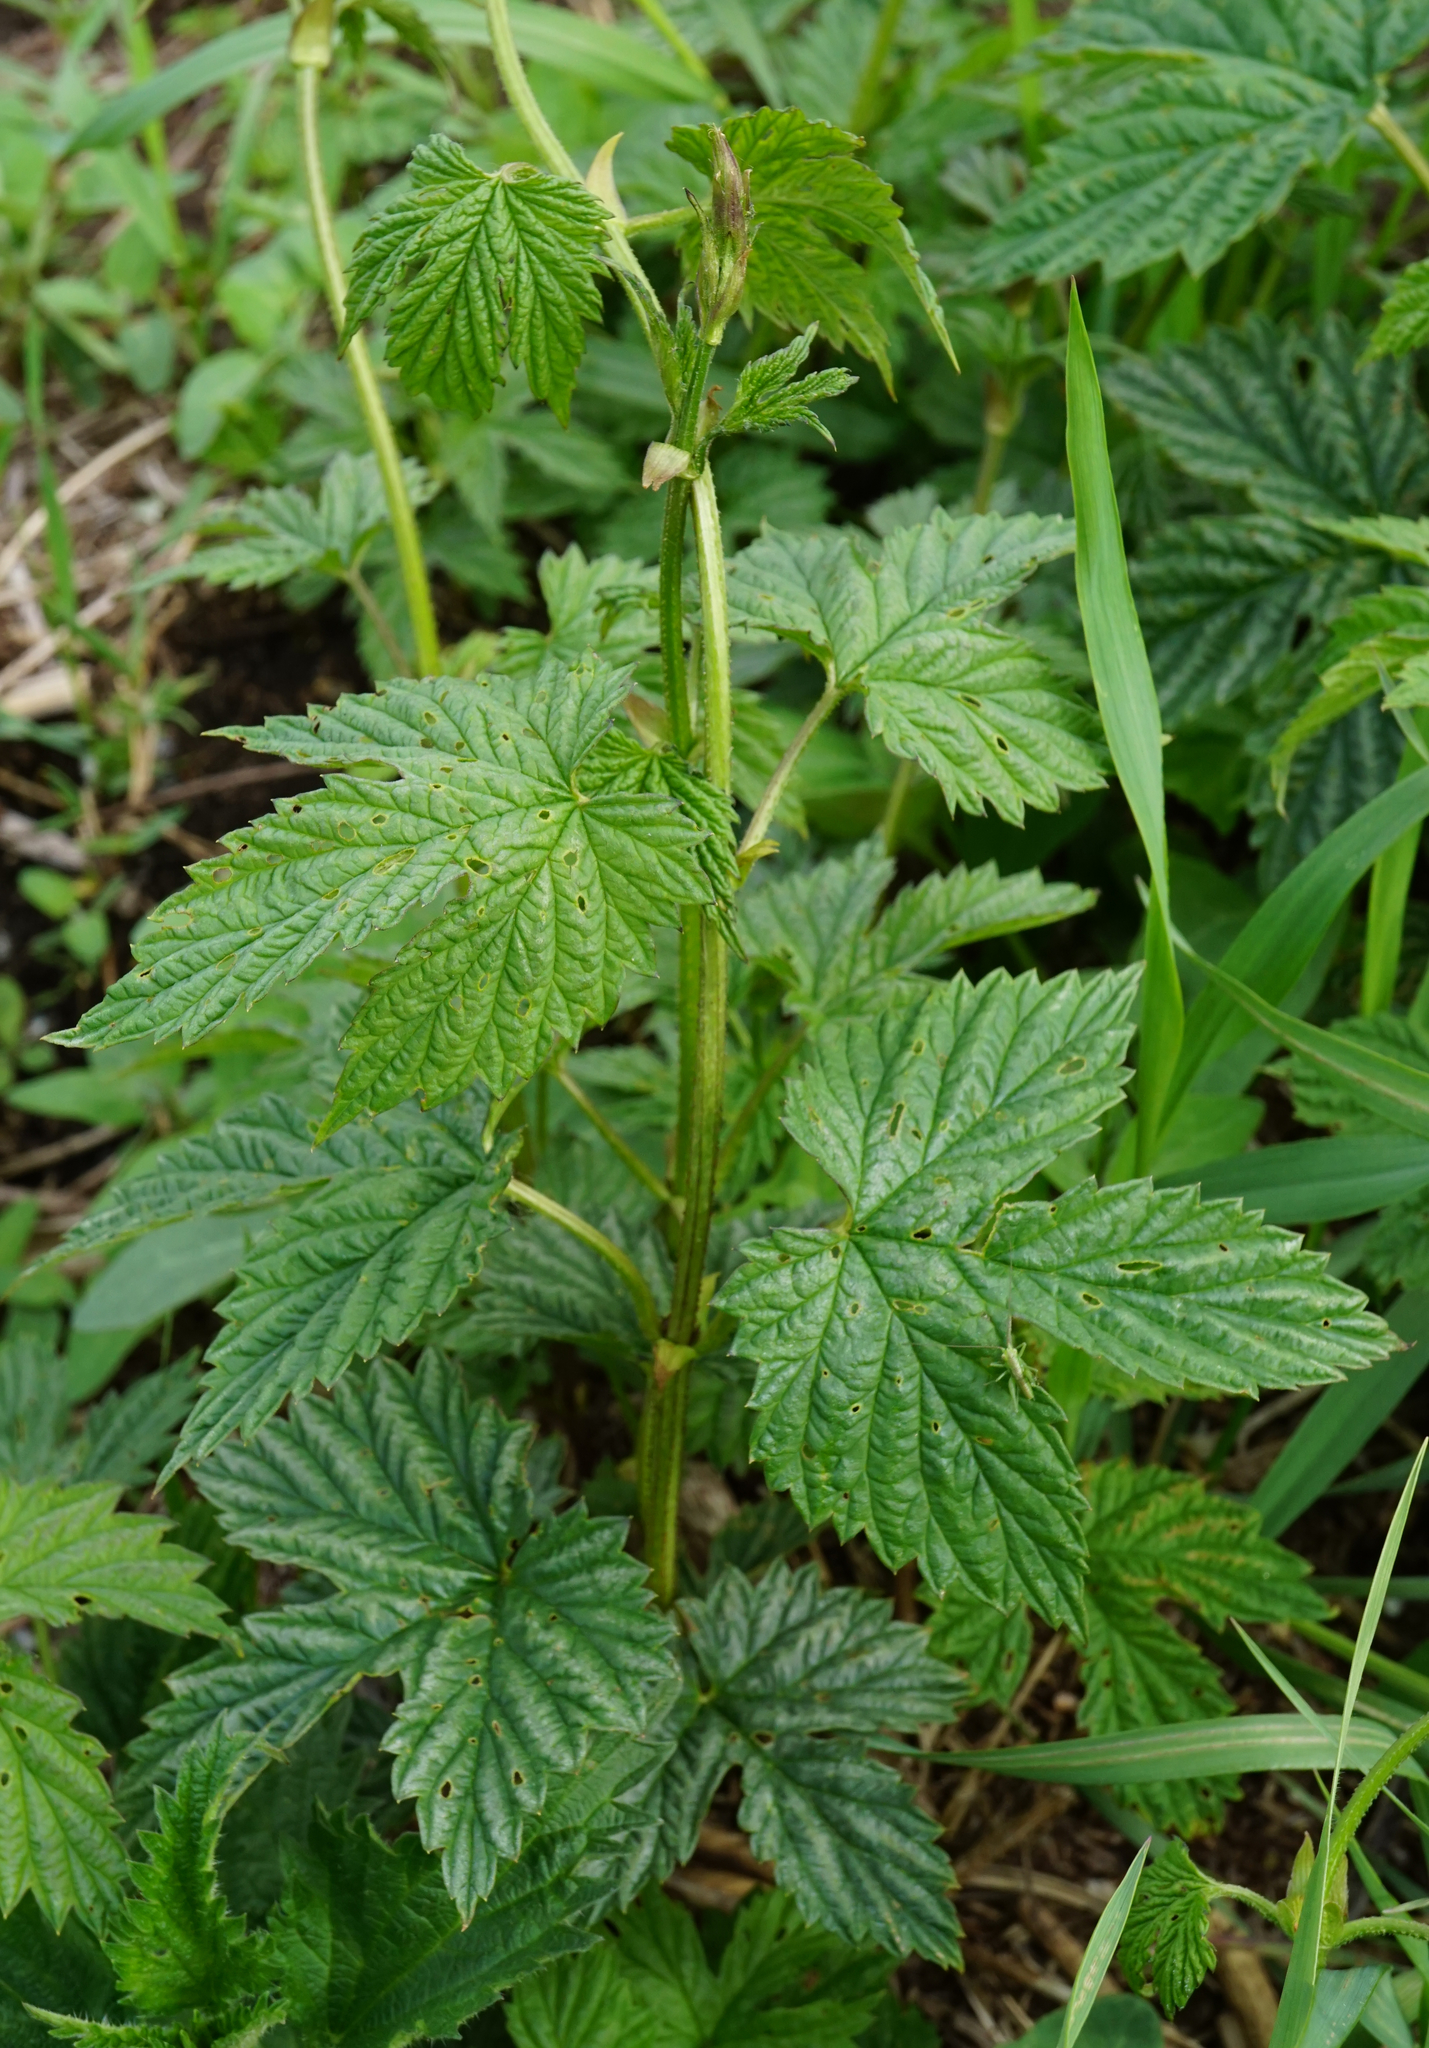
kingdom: Plantae
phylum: Tracheophyta
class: Magnoliopsida
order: Rosales
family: Cannabaceae
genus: Humulus
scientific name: Humulus lupulus
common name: Hop
